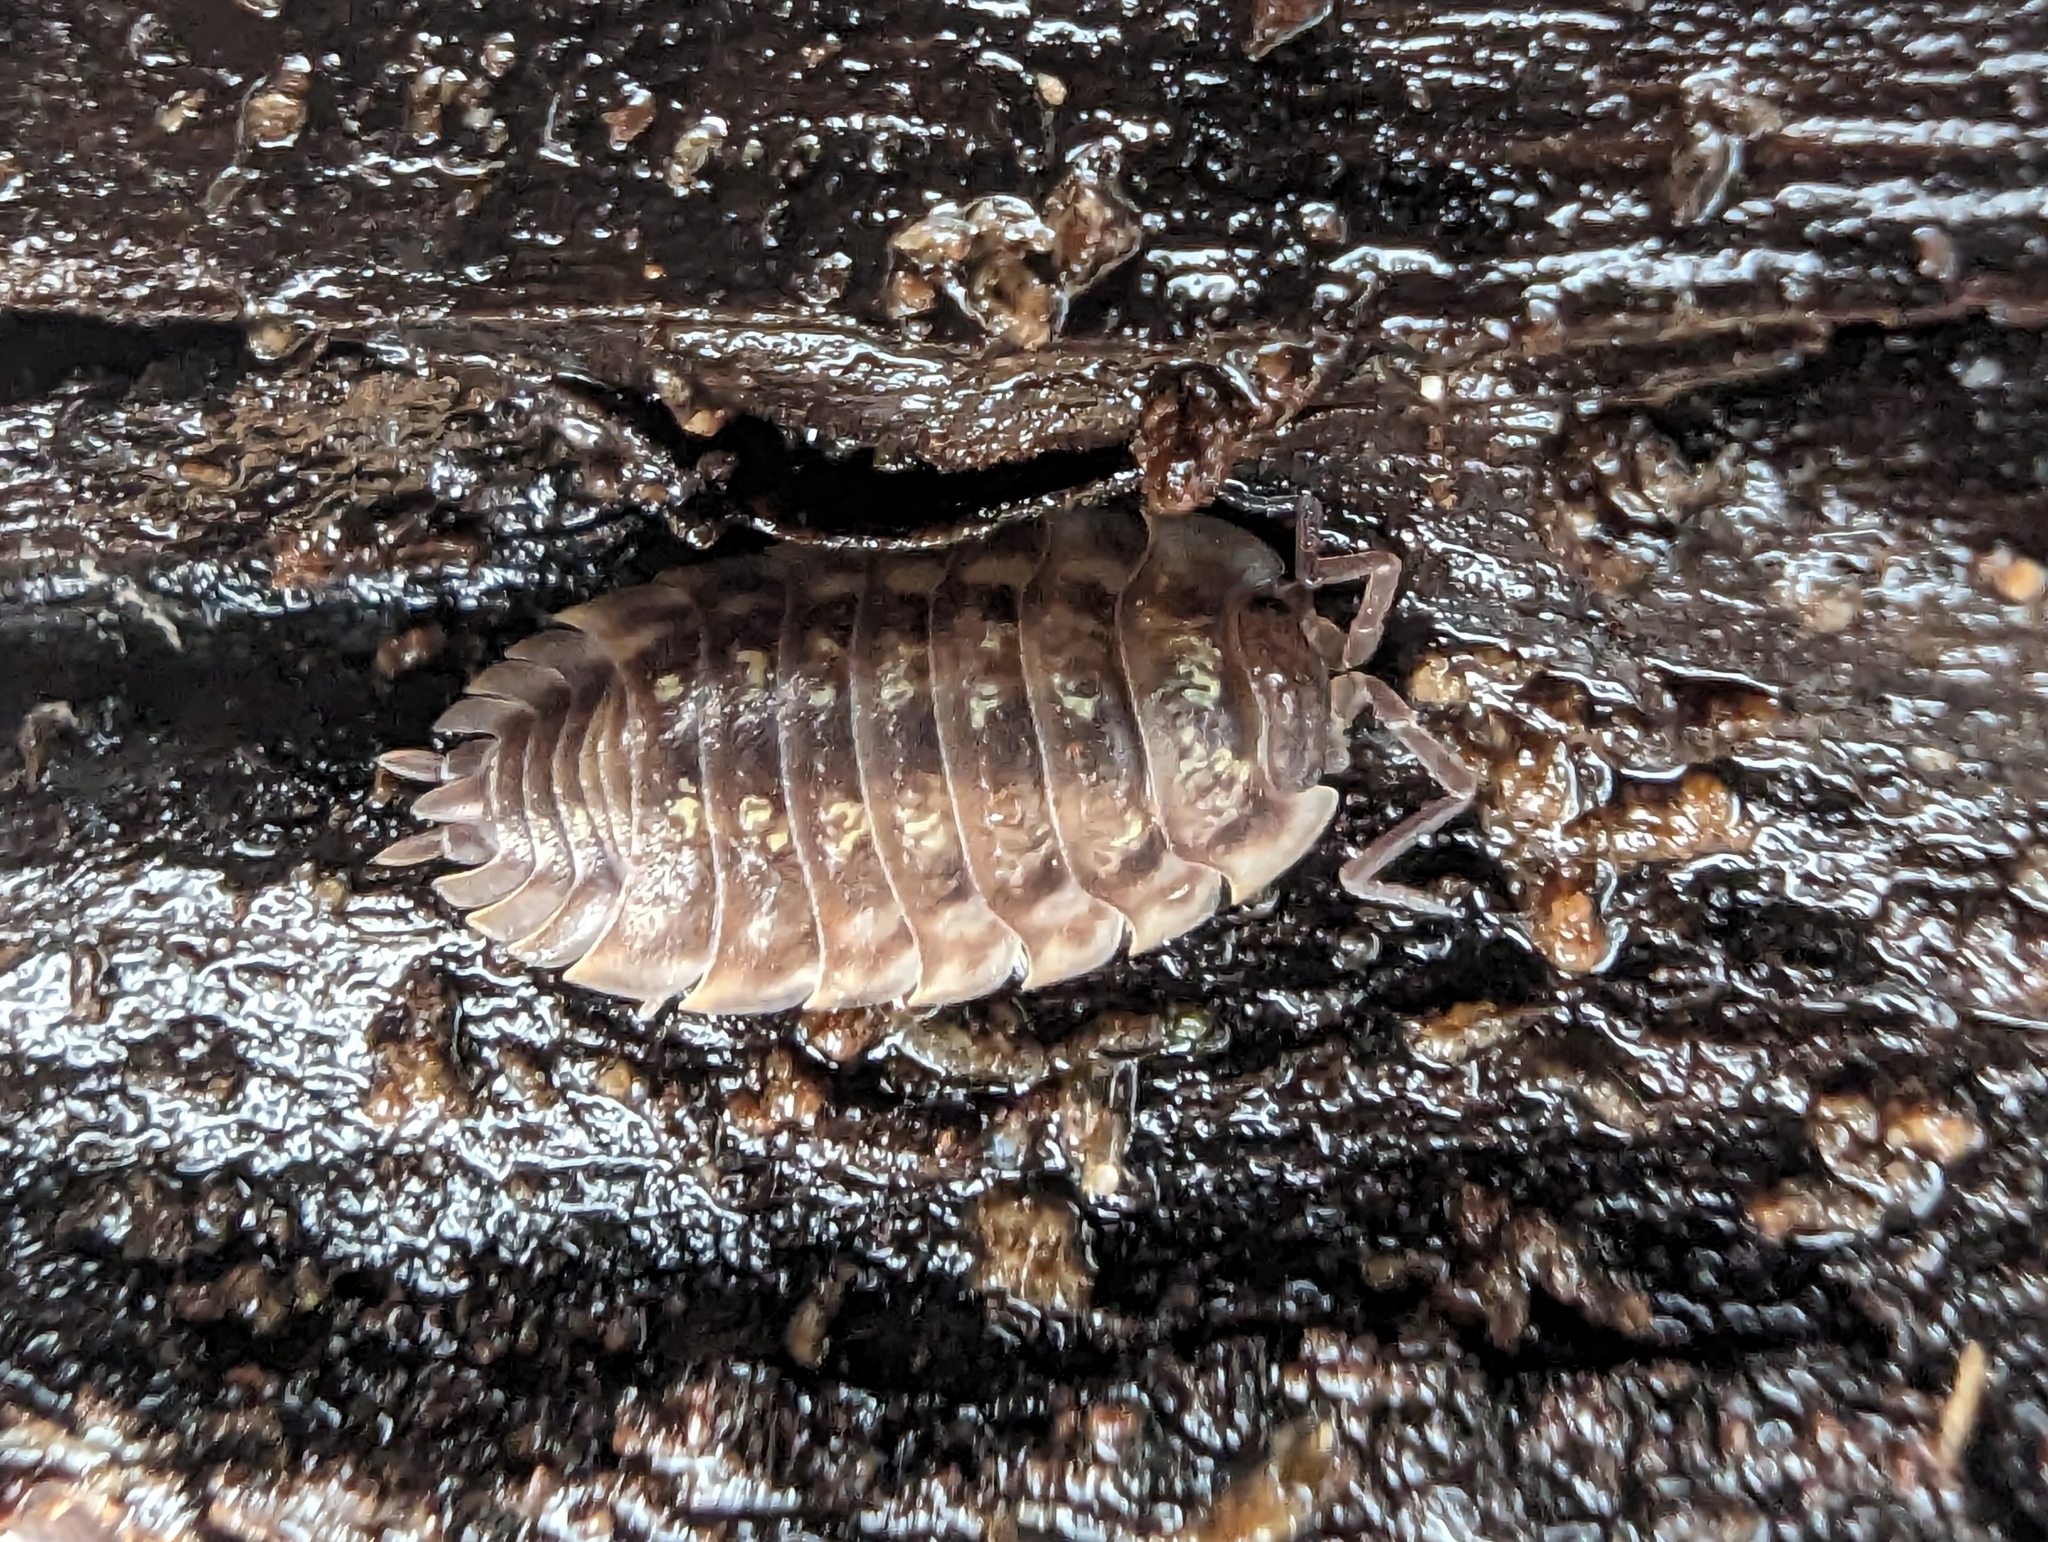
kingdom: Animalia
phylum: Arthropoda
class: Malacostraca
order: Isopoda
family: Oniscidae
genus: Oniscus
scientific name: Oniscus asellus
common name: Common shiny woodlouse
